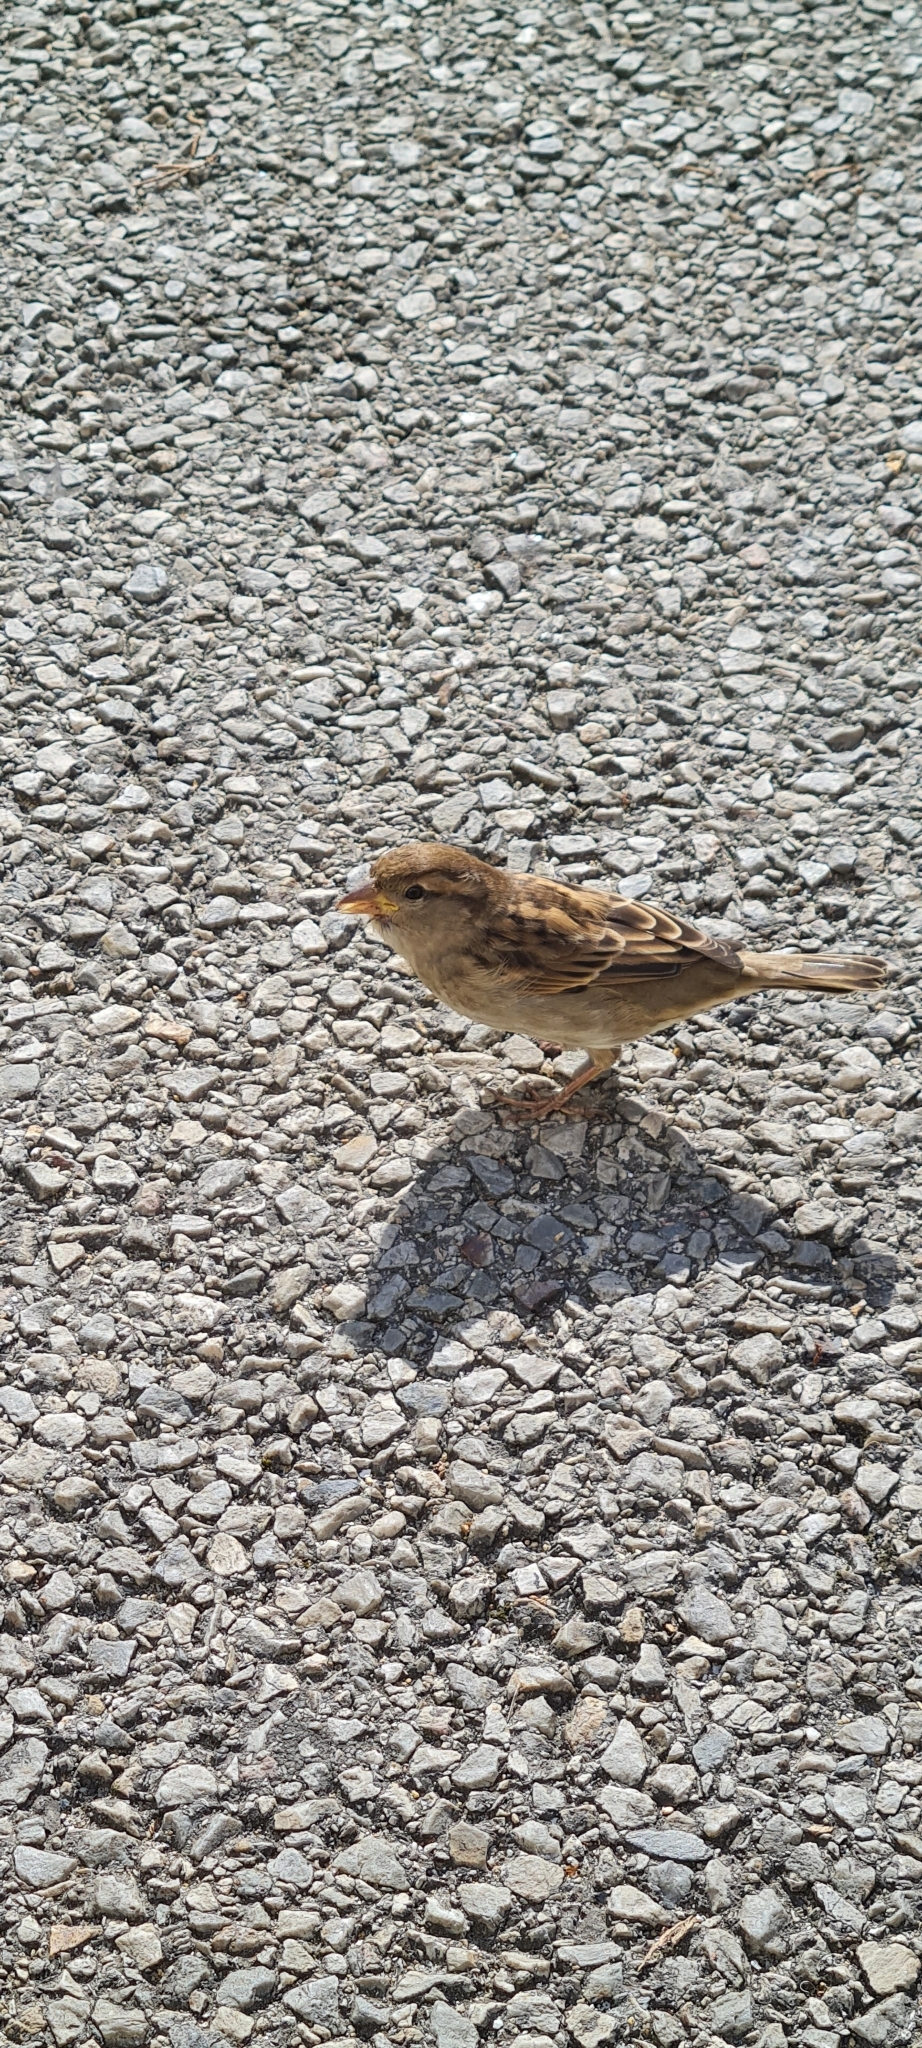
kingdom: Animalia
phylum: Chordata
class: Aves
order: Passeriformes
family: Passeridae
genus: Passer
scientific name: Passer domesticus
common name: House sparrow
